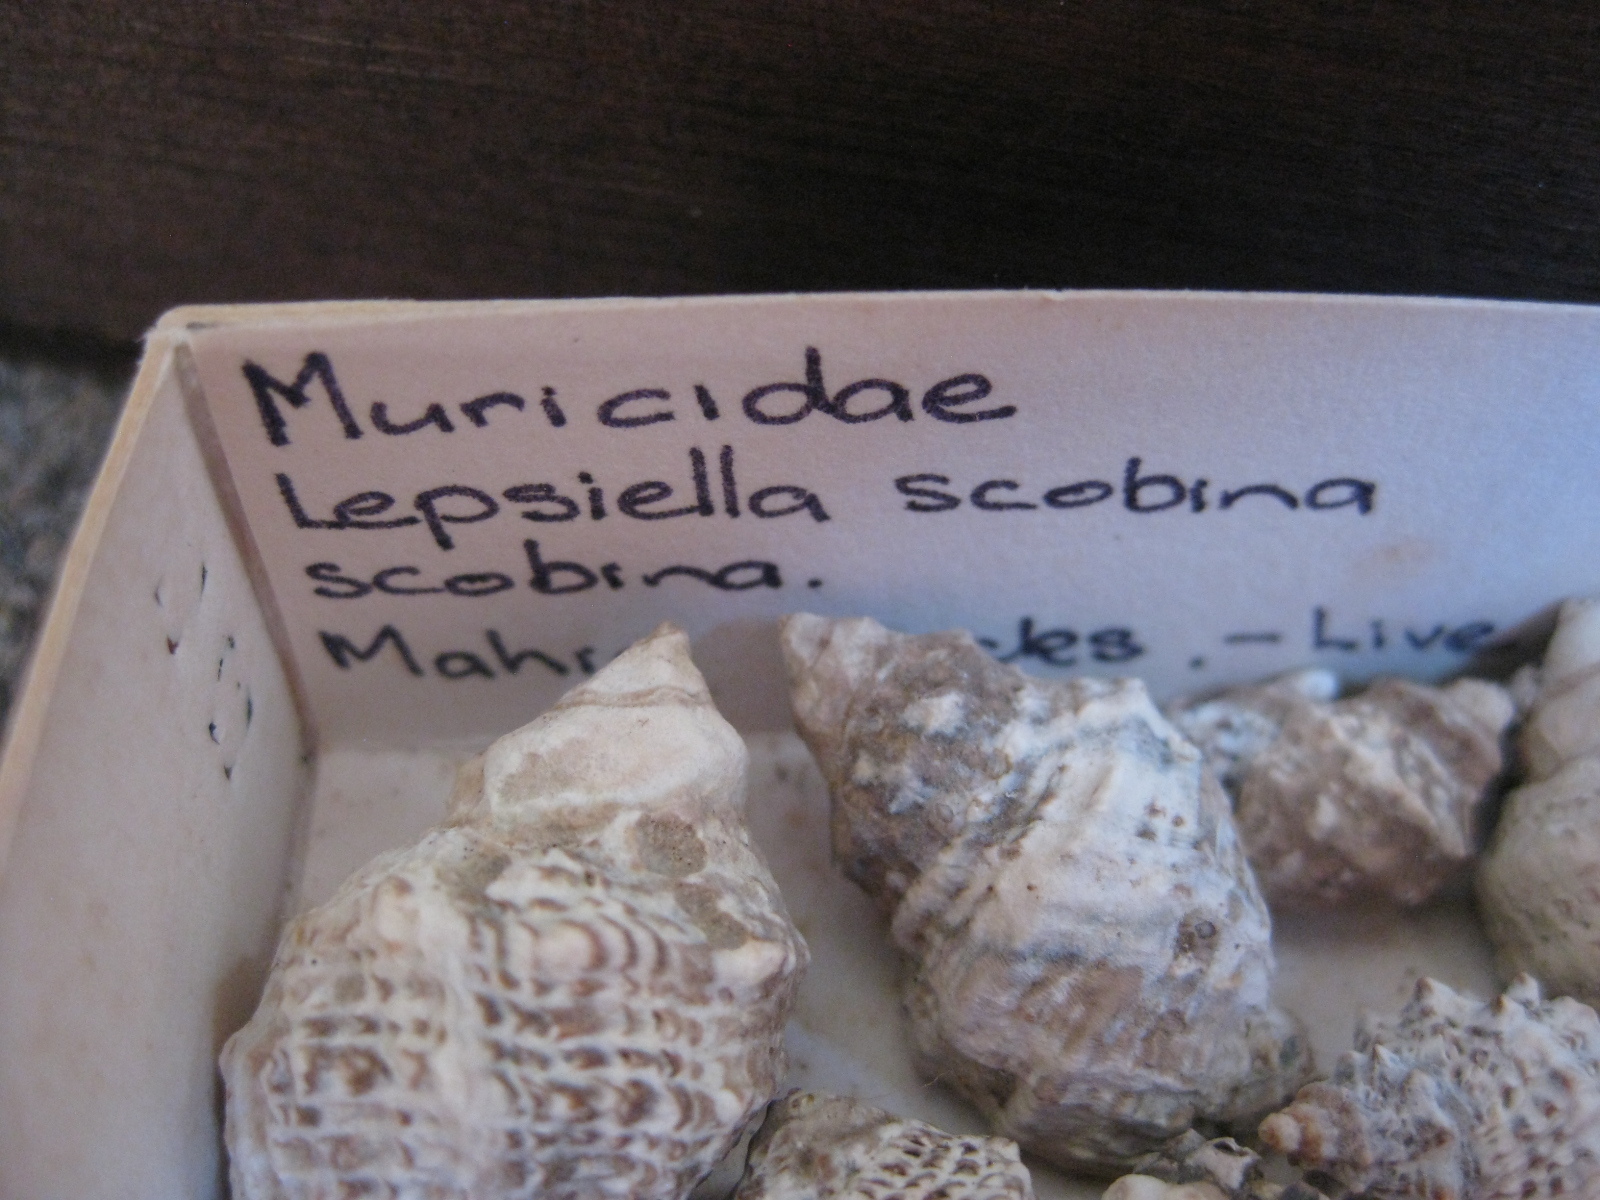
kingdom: Animalia
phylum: Mollusca
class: Gastropoda
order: Neogastropoda
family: Muricidae
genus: Haustrum
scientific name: Haustrum scobina
